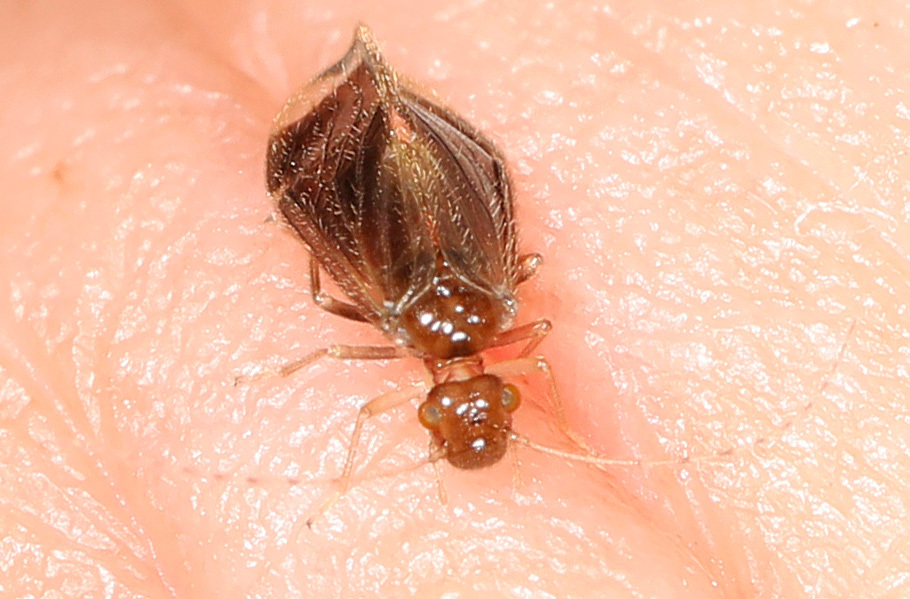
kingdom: Animalia
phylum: Arthropoda
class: Insecta
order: Psocodea
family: Amphipsocidae
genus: Polypsocus
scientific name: Polypsocus corruptus
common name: Corrupt barklouse
